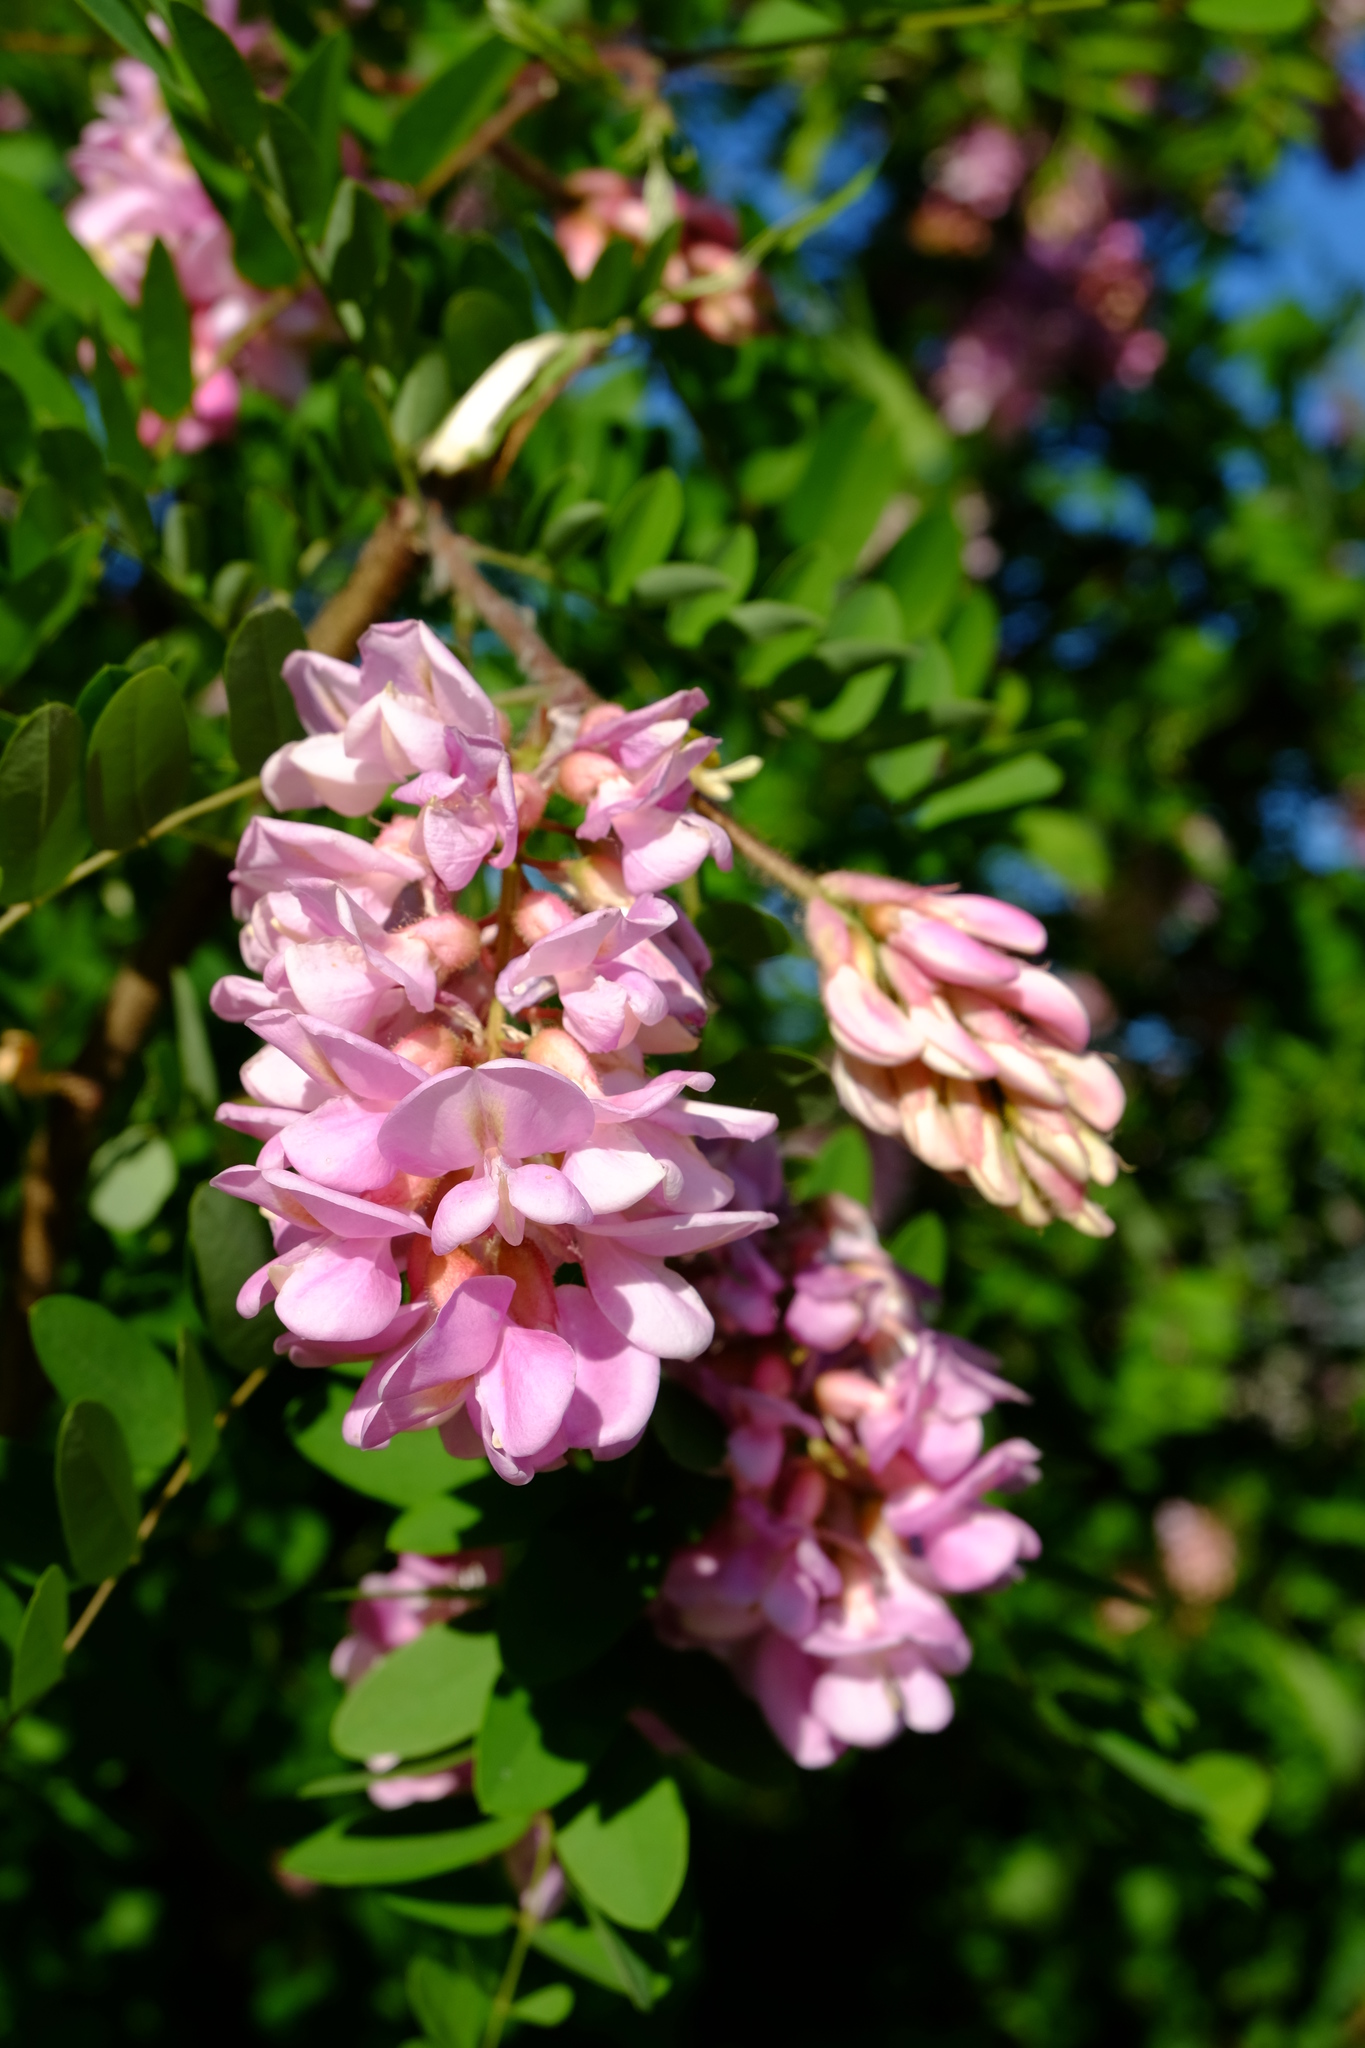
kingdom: Plantae
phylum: Tracheophyta
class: Magnoliopsida
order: Fabales
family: Fabaceae
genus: Robinia
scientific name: Robinia viscosa
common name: Clammy locust
